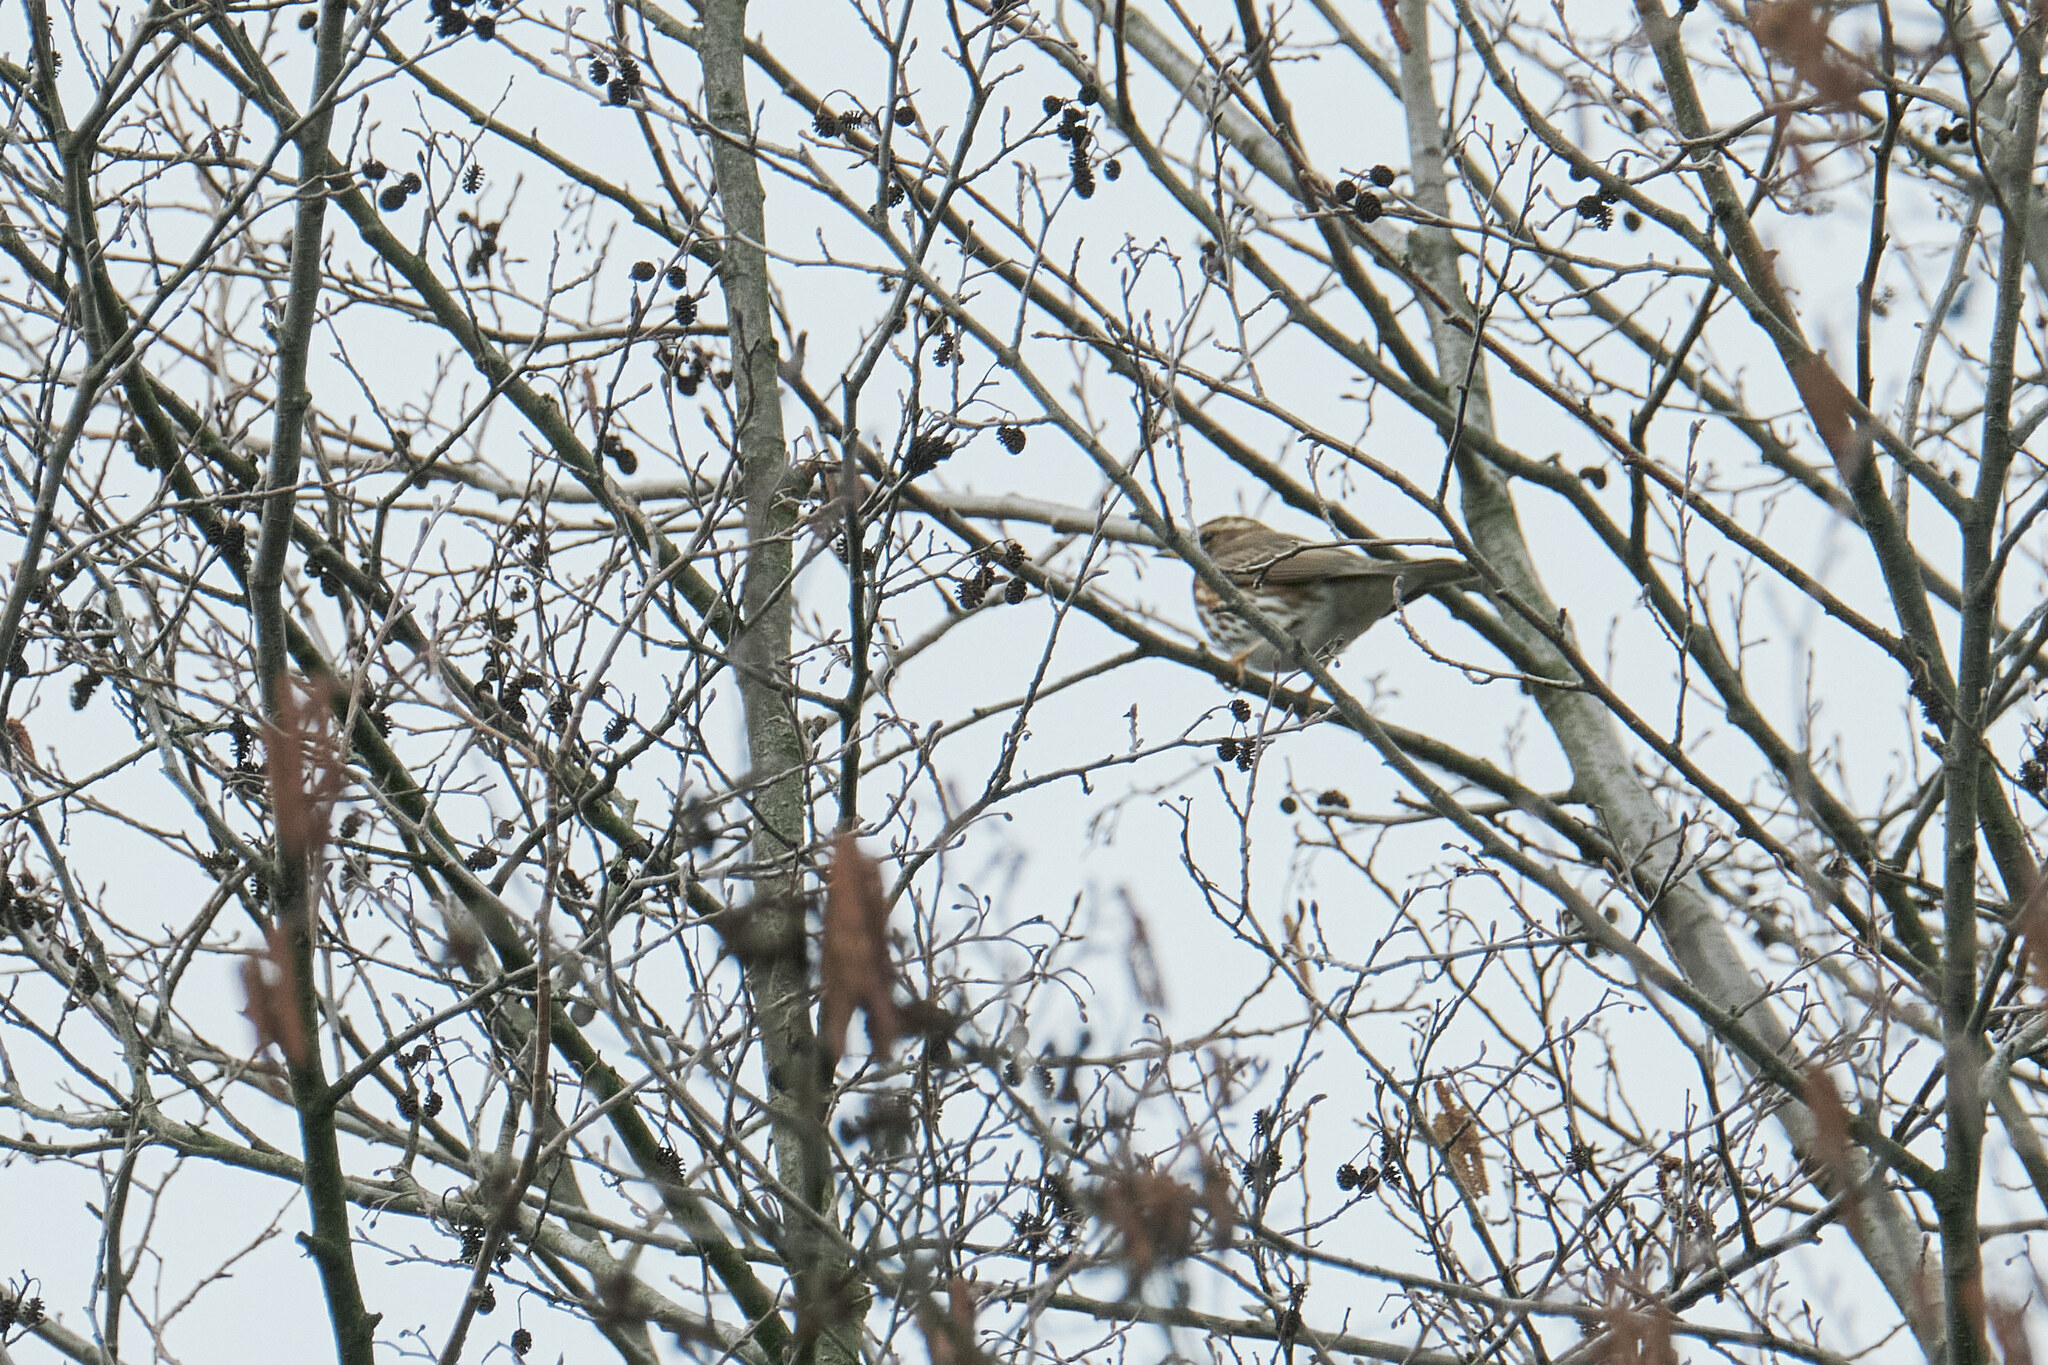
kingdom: Animalia
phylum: Chordata
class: Aves
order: Passeriformes
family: Turdidae
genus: Turdus
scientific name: Turdus iliacus
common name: Redwing
